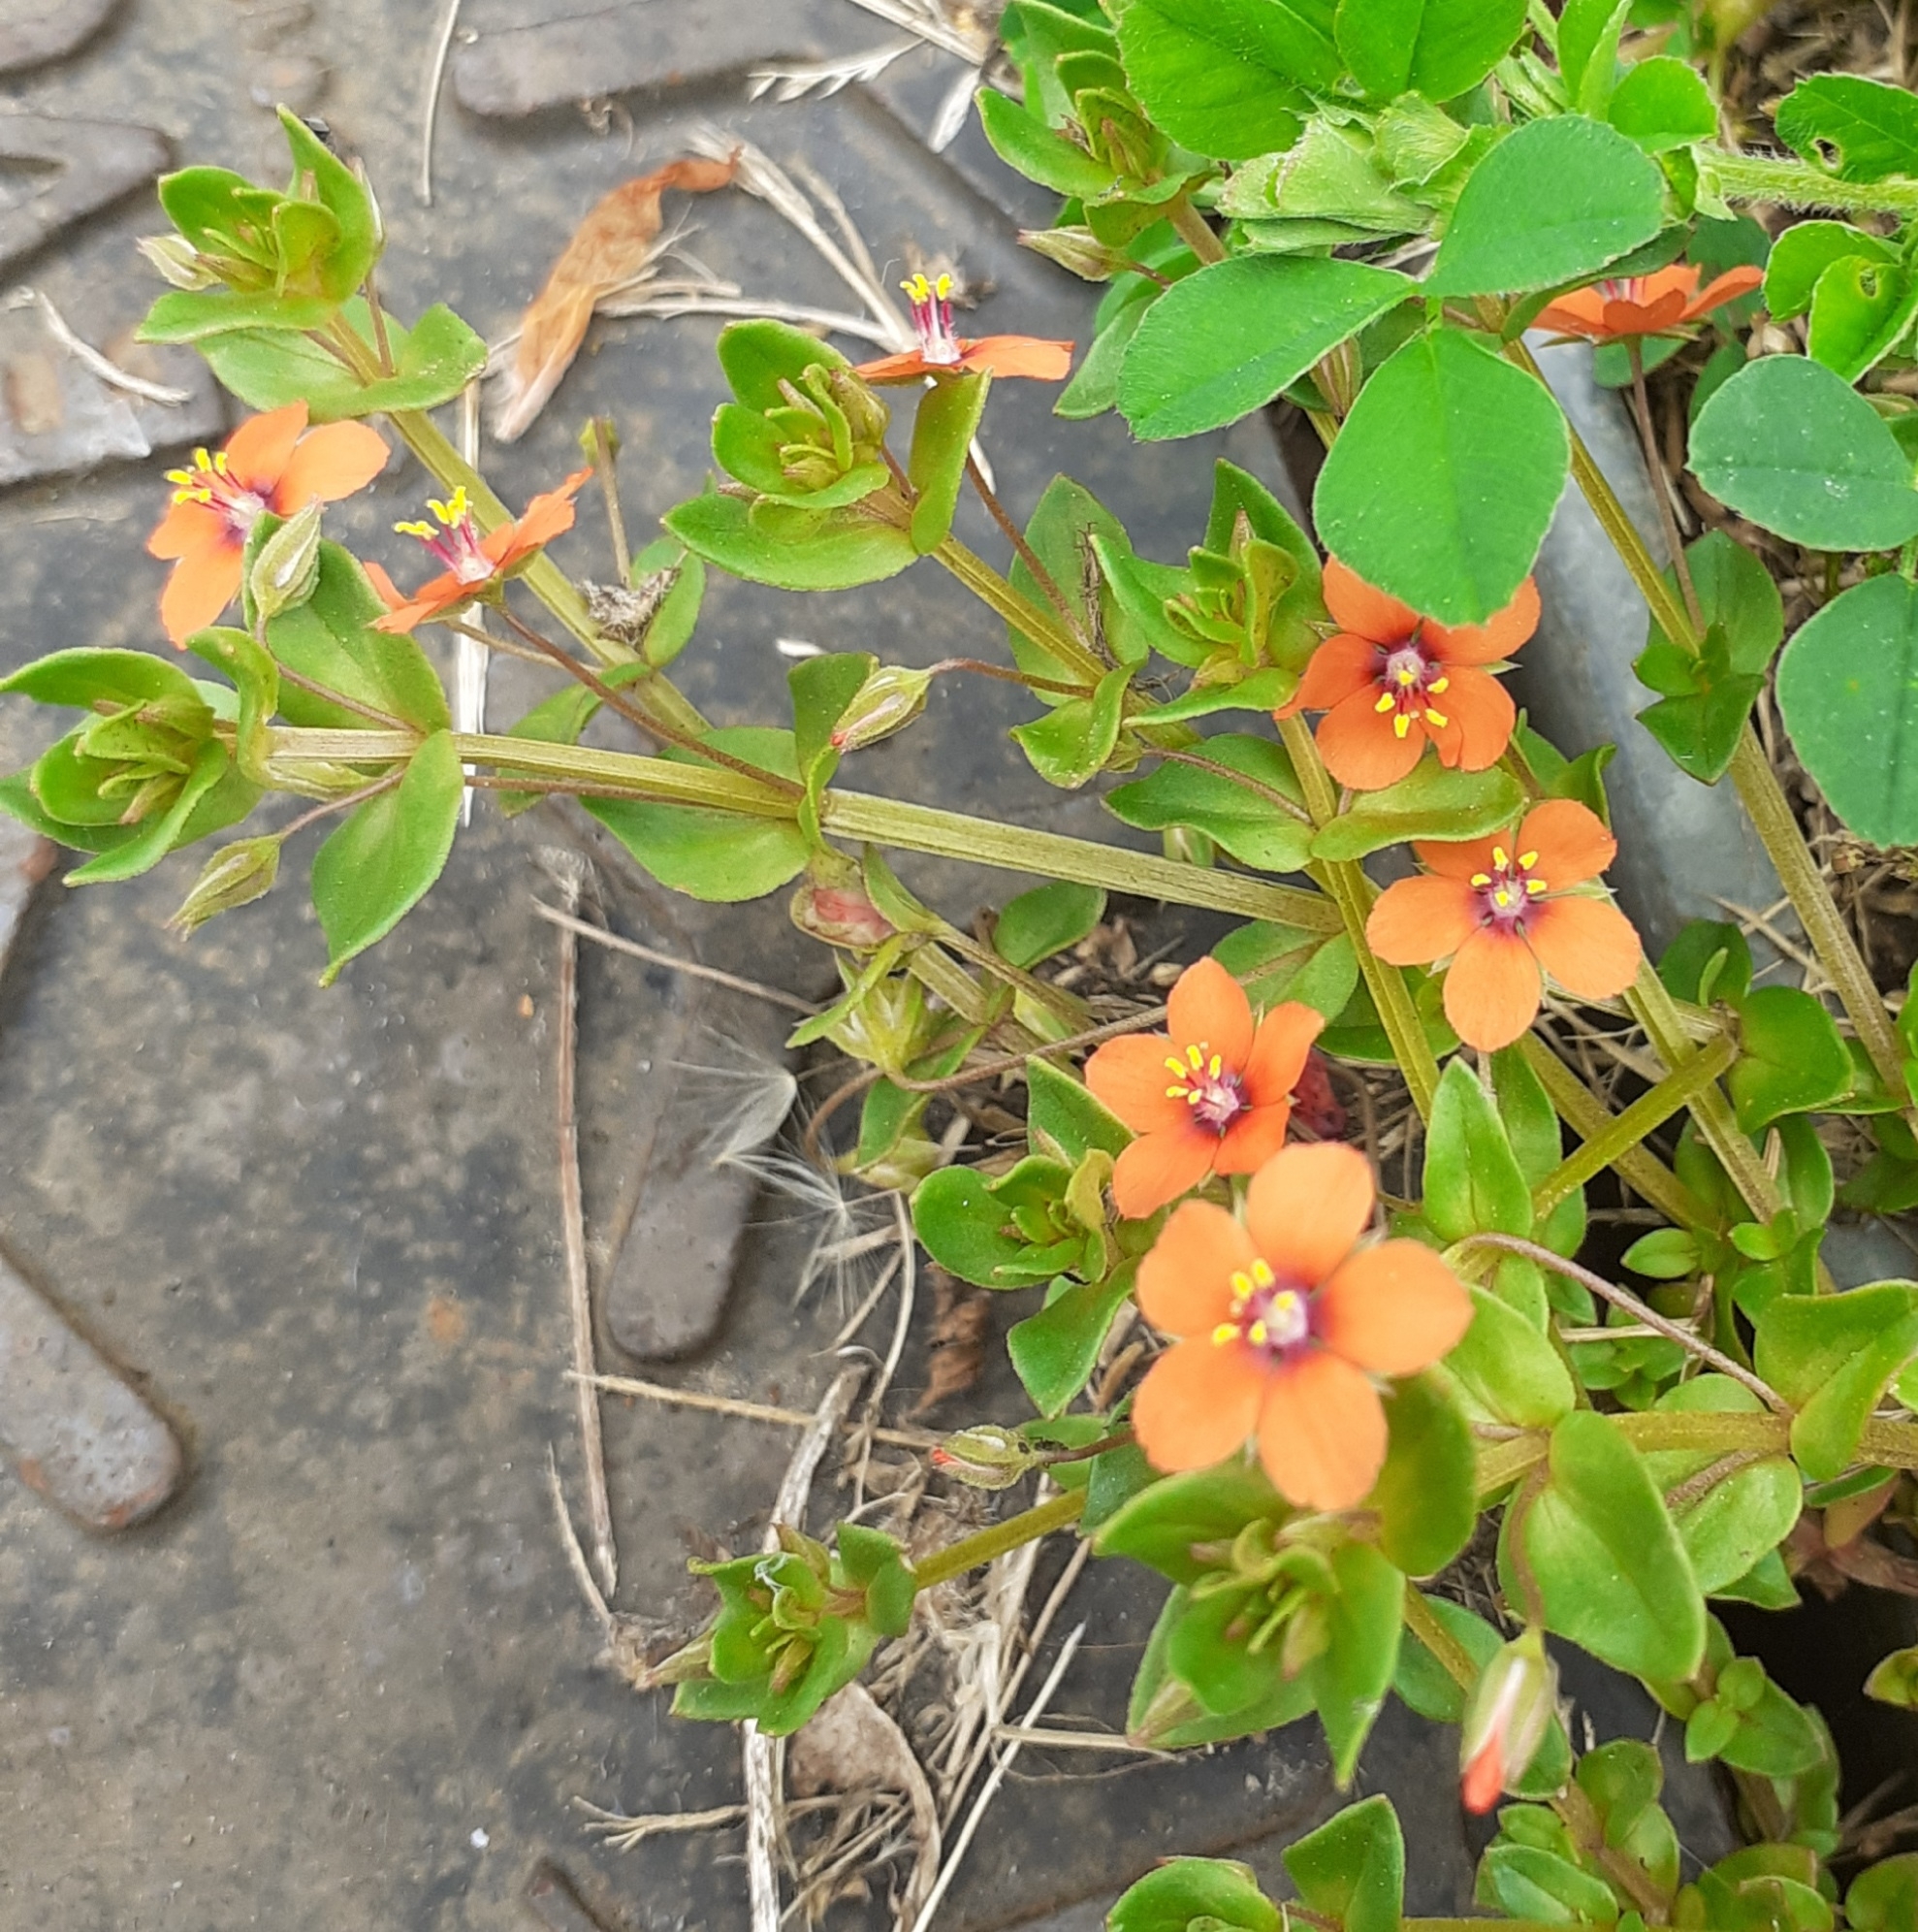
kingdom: Plantae
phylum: Tracheophyta
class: Magnoliopsida
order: Ericales
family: Primulaceae
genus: Lysimachia
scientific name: Lysimachia arvensis
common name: Scarlet pimpernel
